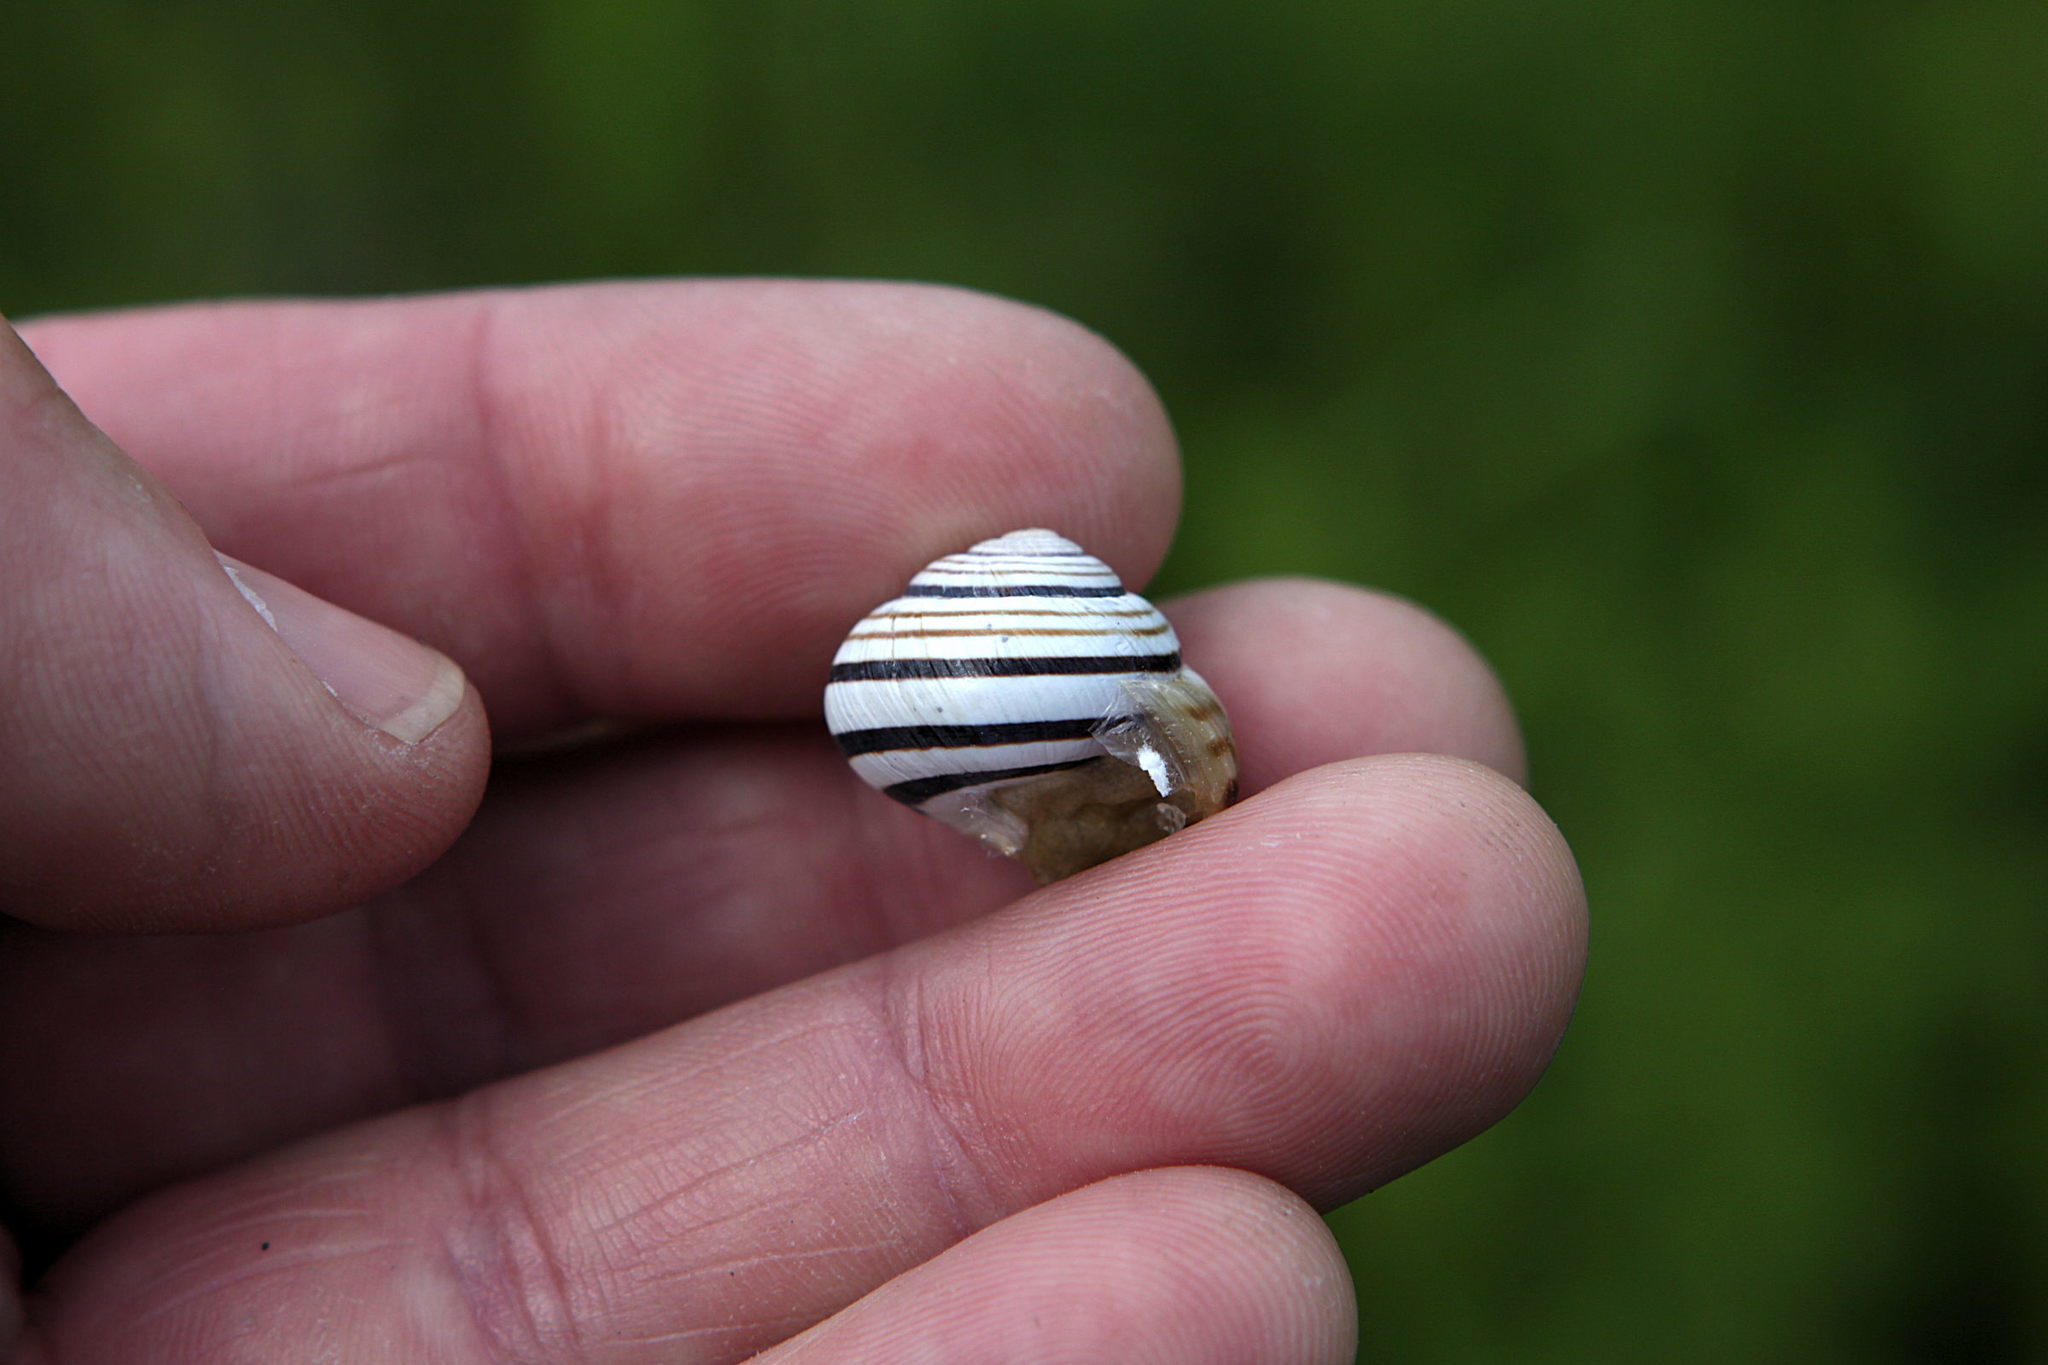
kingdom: Animalia
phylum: Mollusca
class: Gastropoda
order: Stylommatophora
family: Helicidae
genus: Caucasotachea
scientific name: Caucasotachea vindobonensis
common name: European helicid land snail
